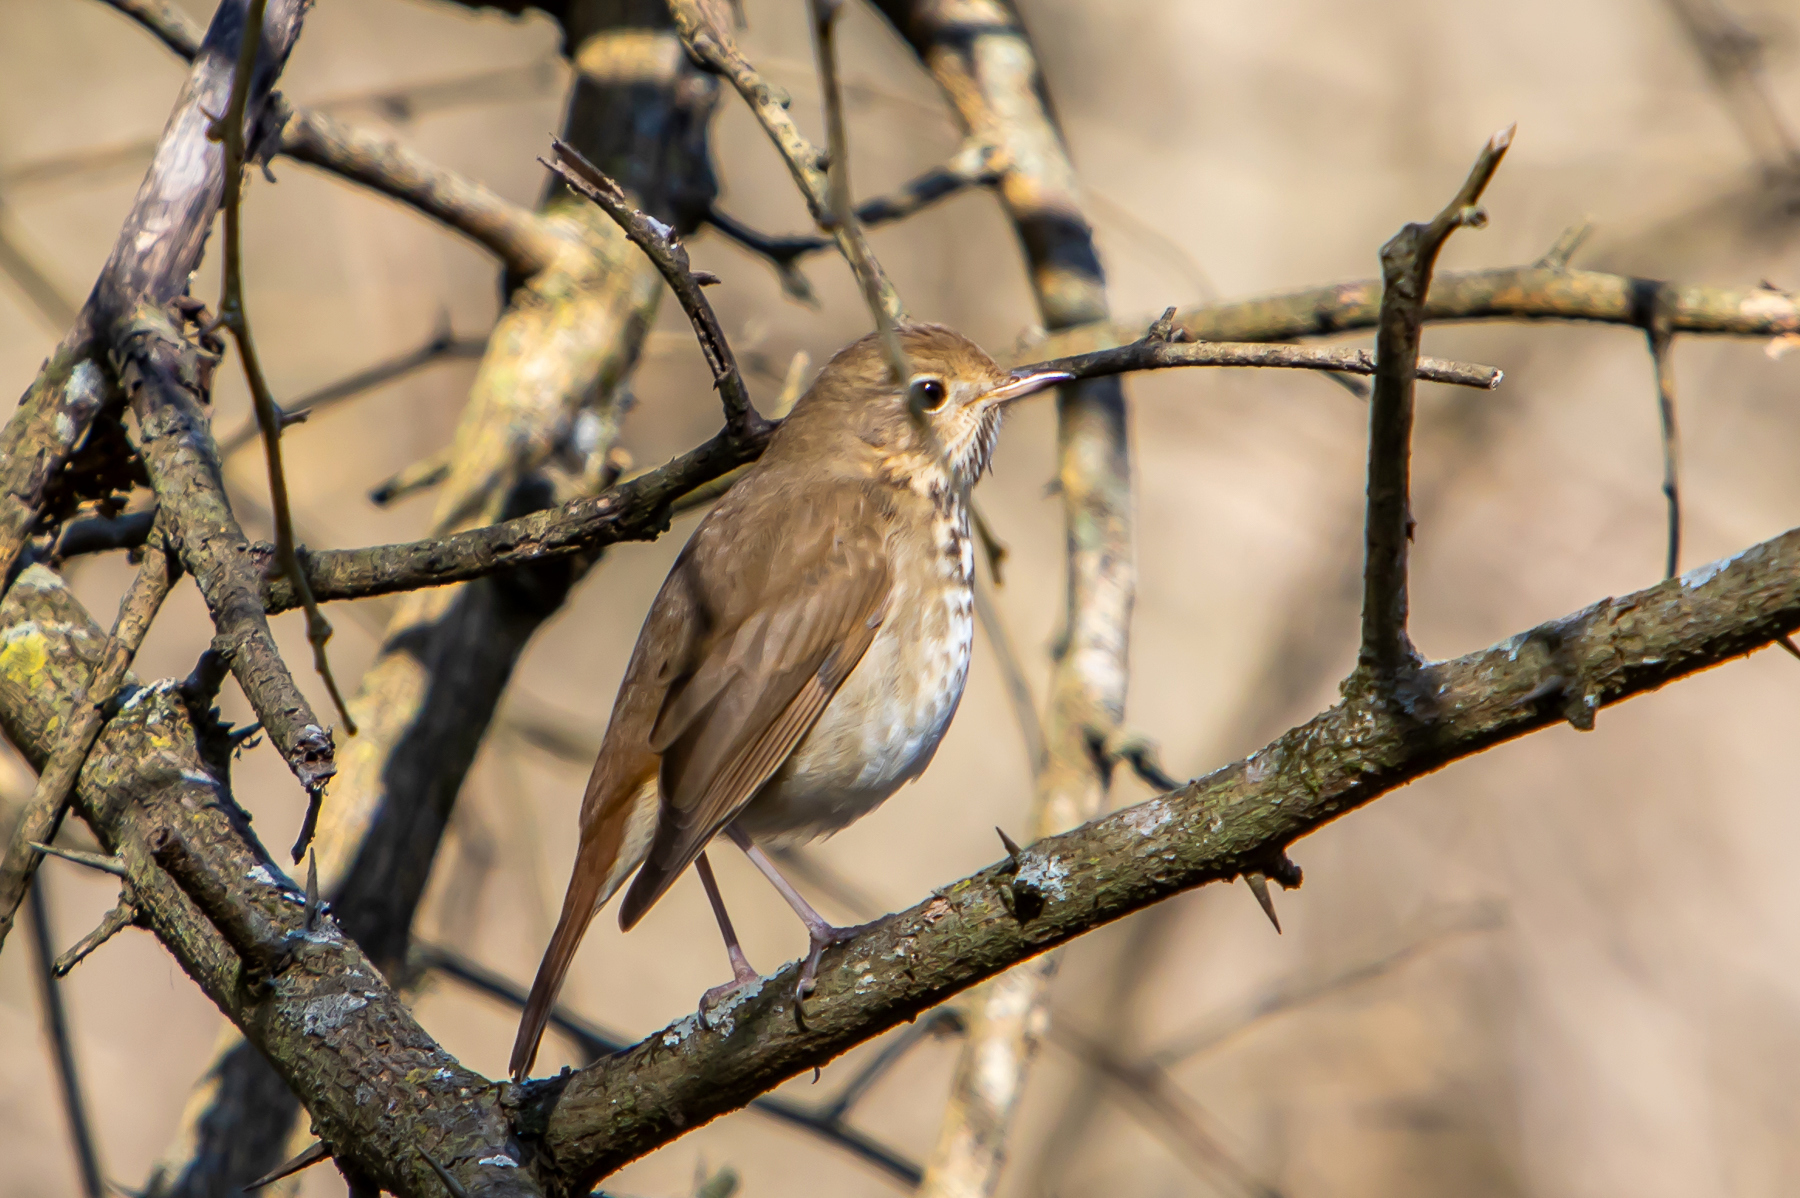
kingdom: Animalia
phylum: Chordata
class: Aves
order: Passeriformes
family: Turdidae
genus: Catharus
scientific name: Catharus guttatus
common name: Hermit thrush
